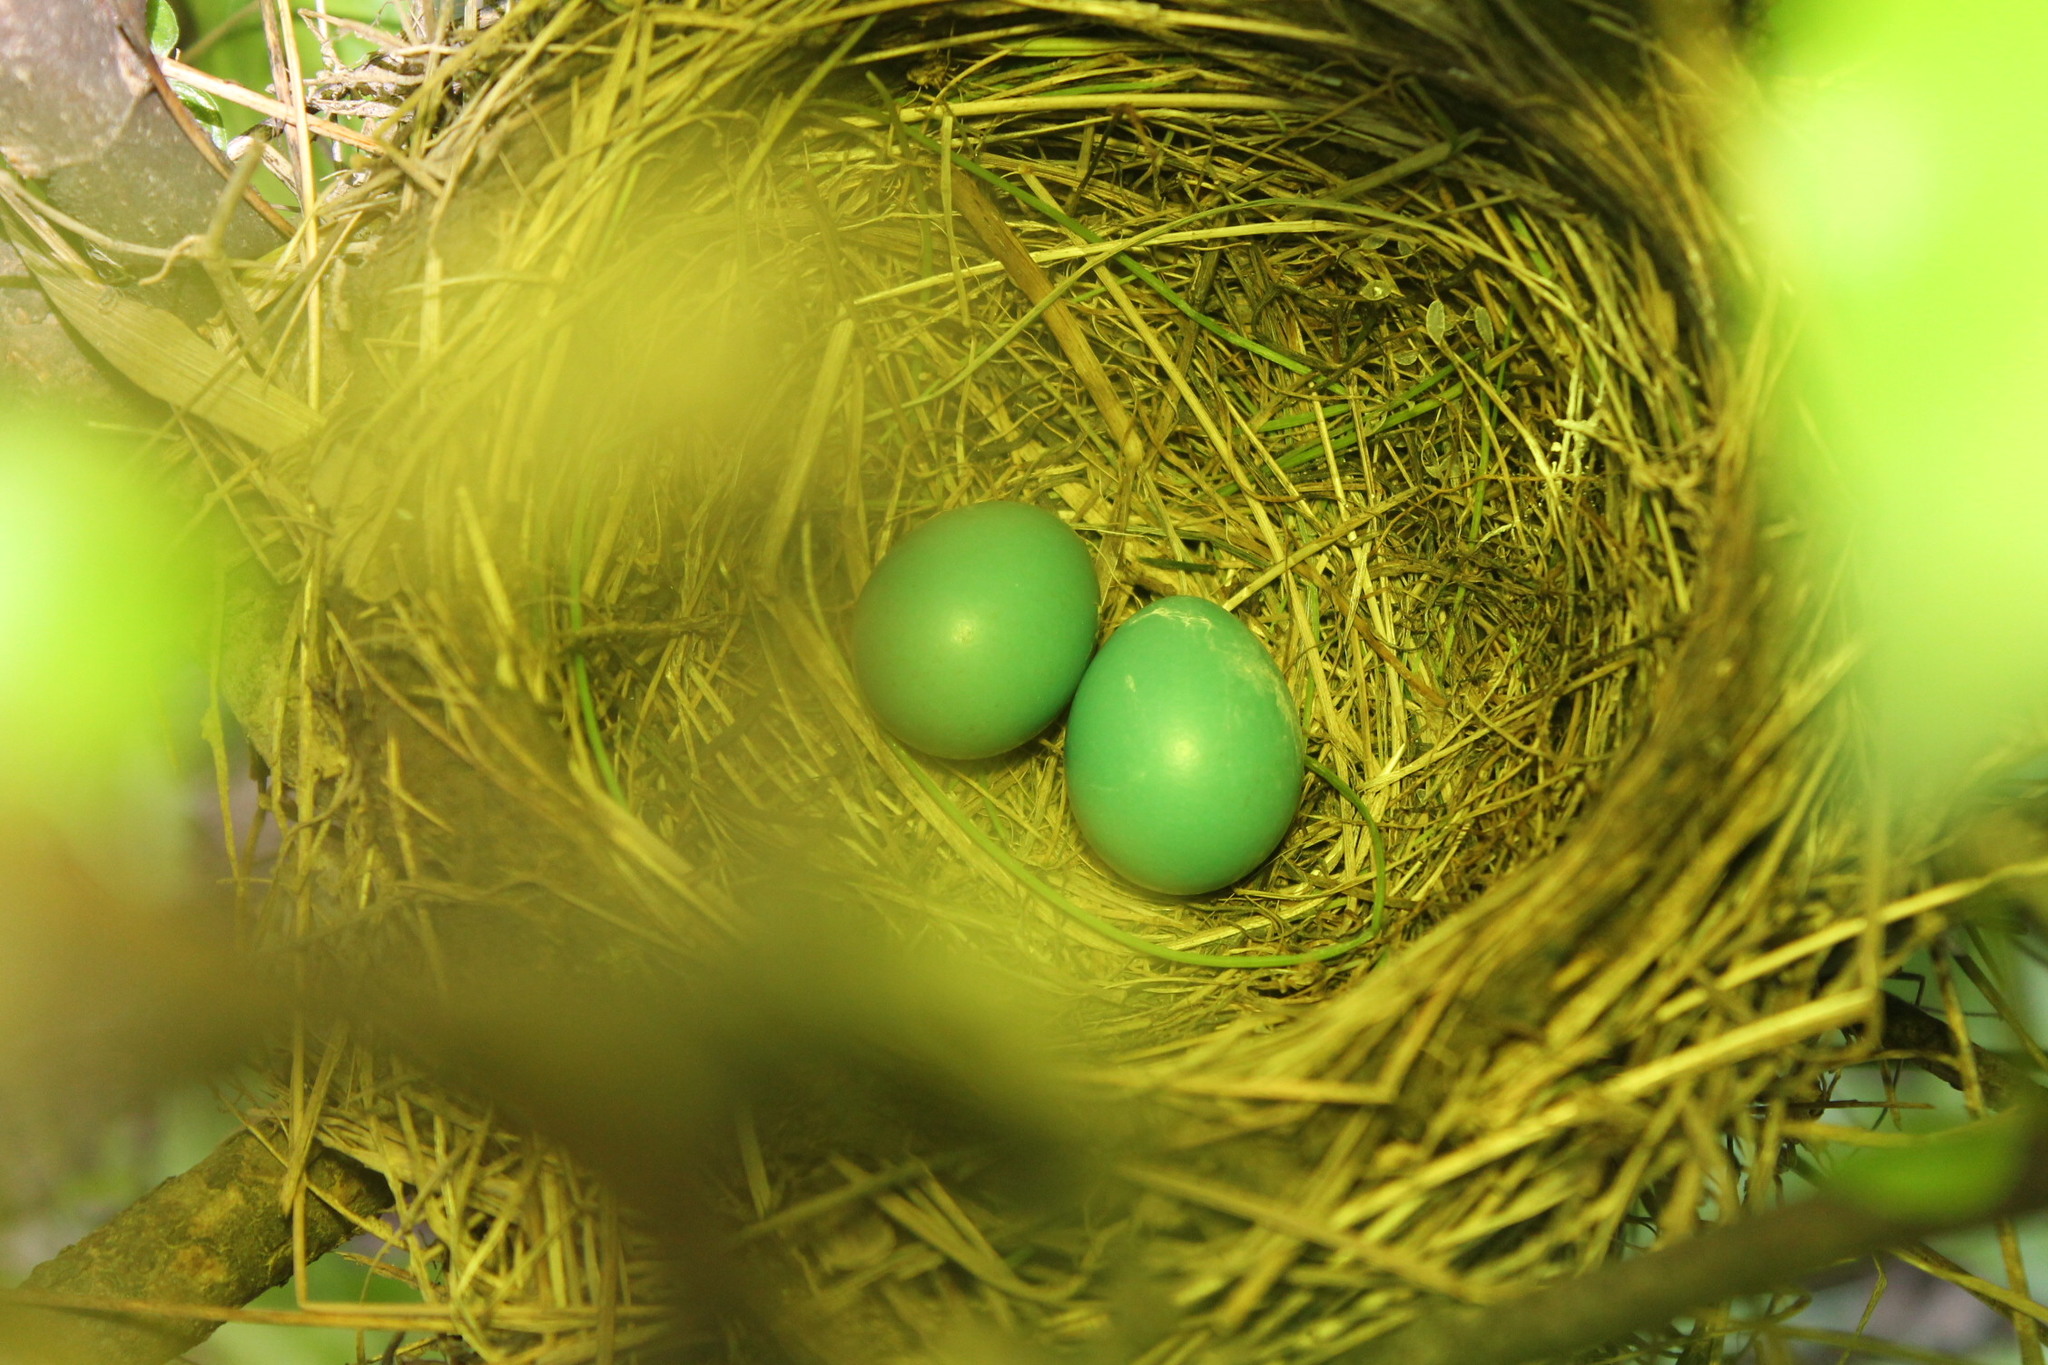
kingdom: Animalia
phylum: Chordata
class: Aves
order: Passeriformes
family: Turdidae
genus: Turdus
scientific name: Turdus migratorius
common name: American robin
